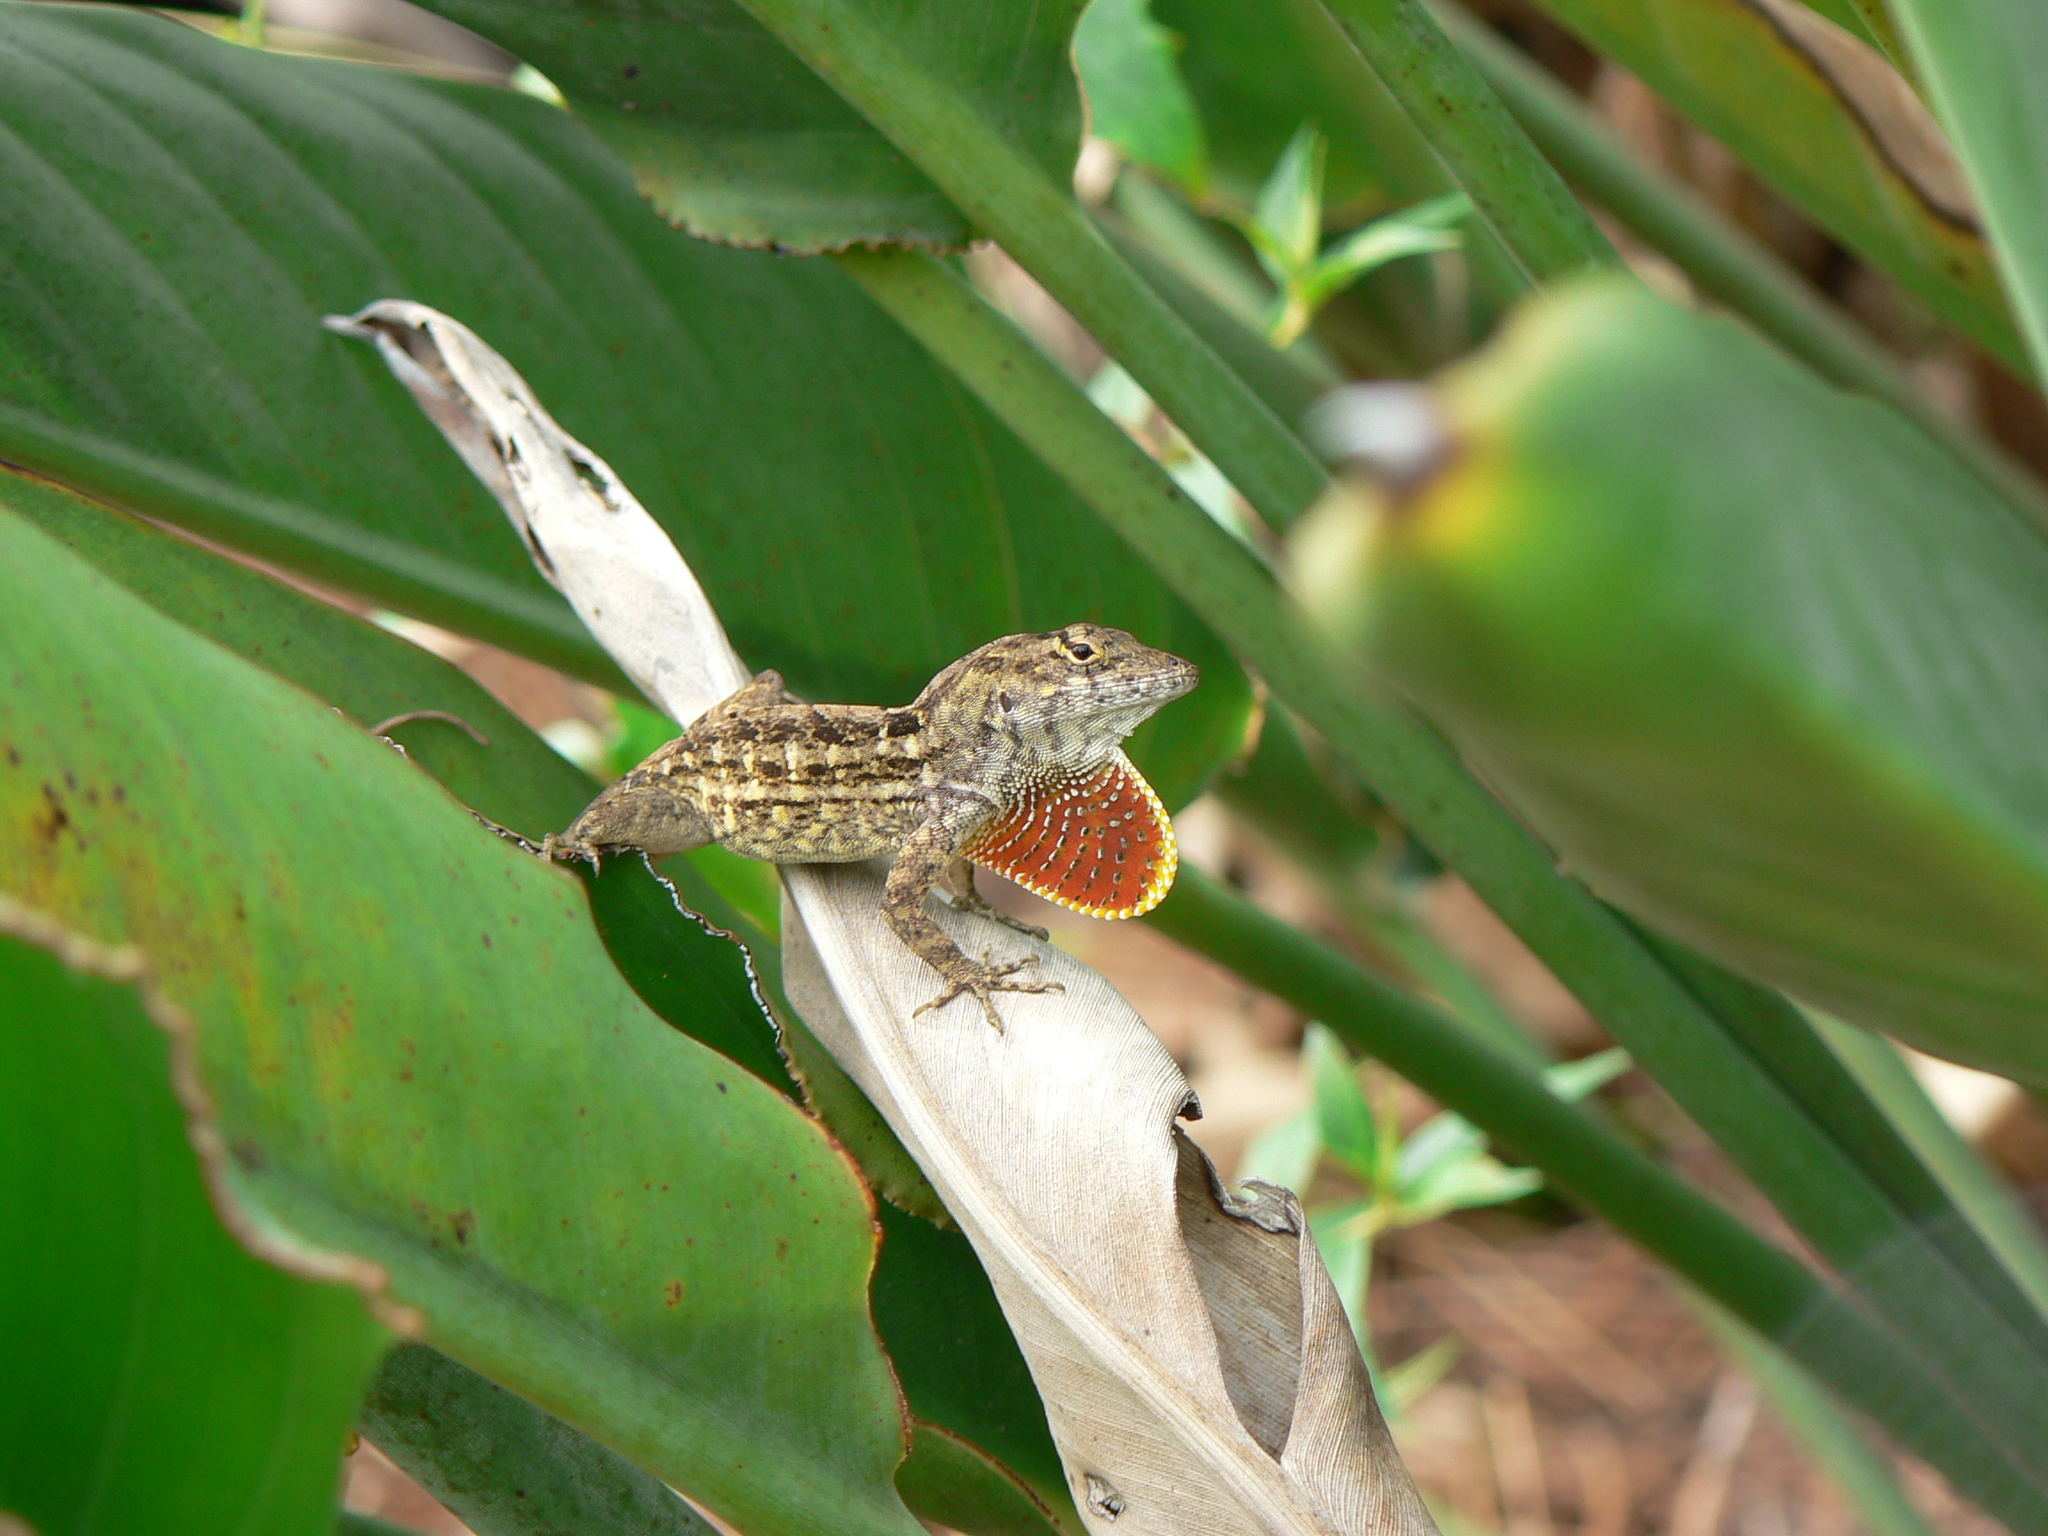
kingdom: Animalia
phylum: Chordata
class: Squamata
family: Dactyloidae
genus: Anolis
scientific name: Anolis sagrei
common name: Brown anole
